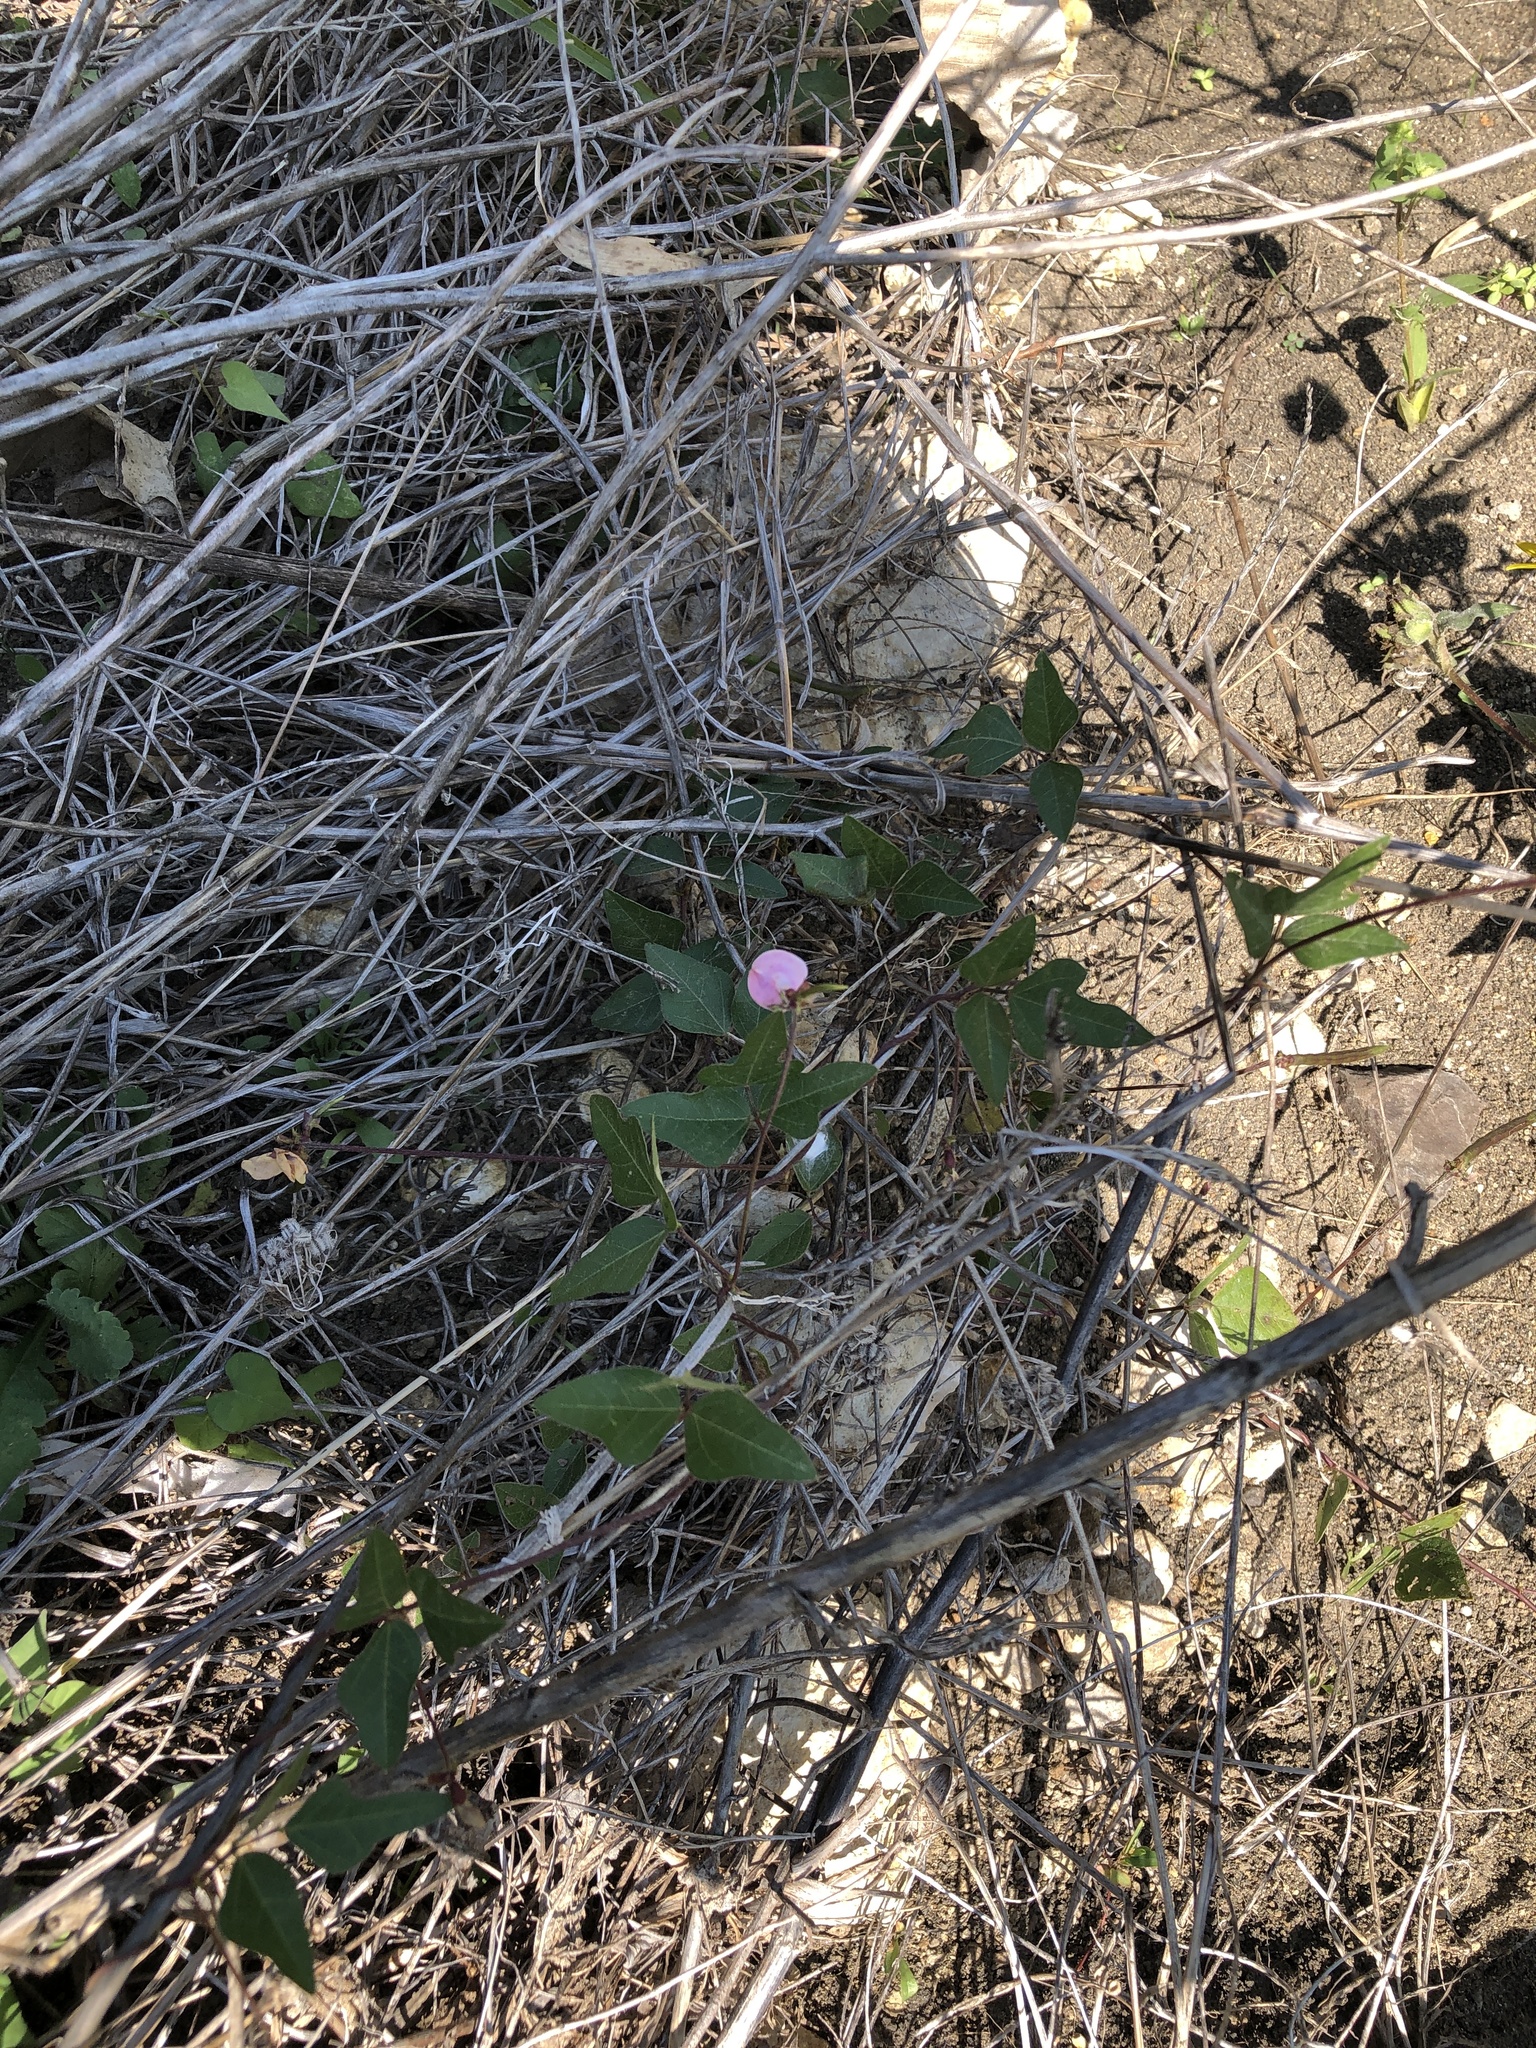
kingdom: Plantae
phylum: Tracheophyta
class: Magnoliopsida
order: Fabales
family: Fabaceae
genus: Strophostyles
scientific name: Strophostyles helvola
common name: Trailing wild bean
